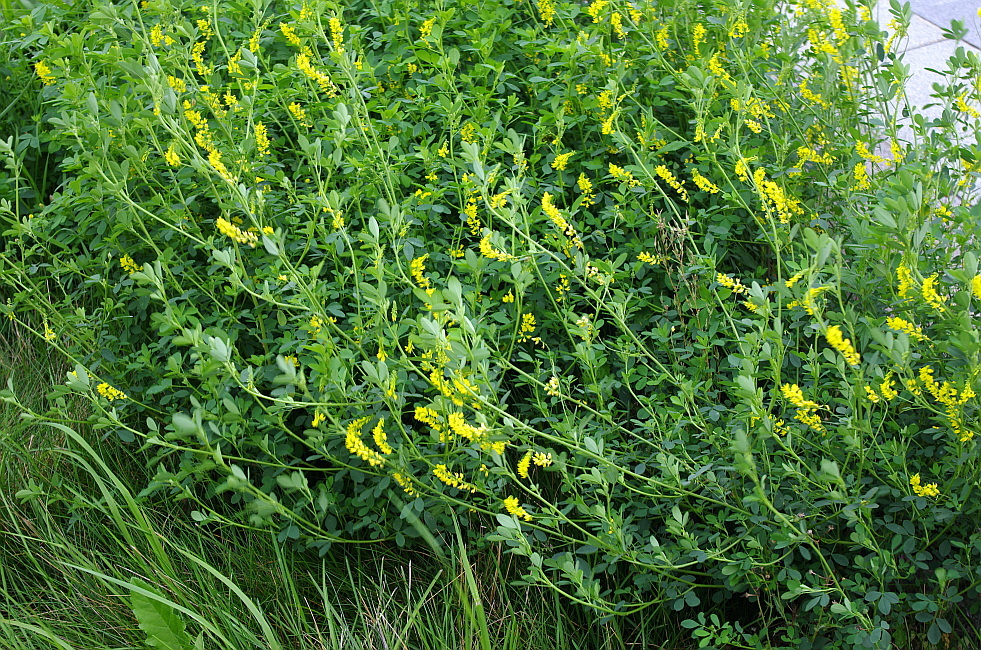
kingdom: Plantae
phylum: Tracheophyta
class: Magnoliopsida
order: Fabales
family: Fabaceae
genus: Melilotus
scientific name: Melilotus officinalis
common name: Sweetclover
